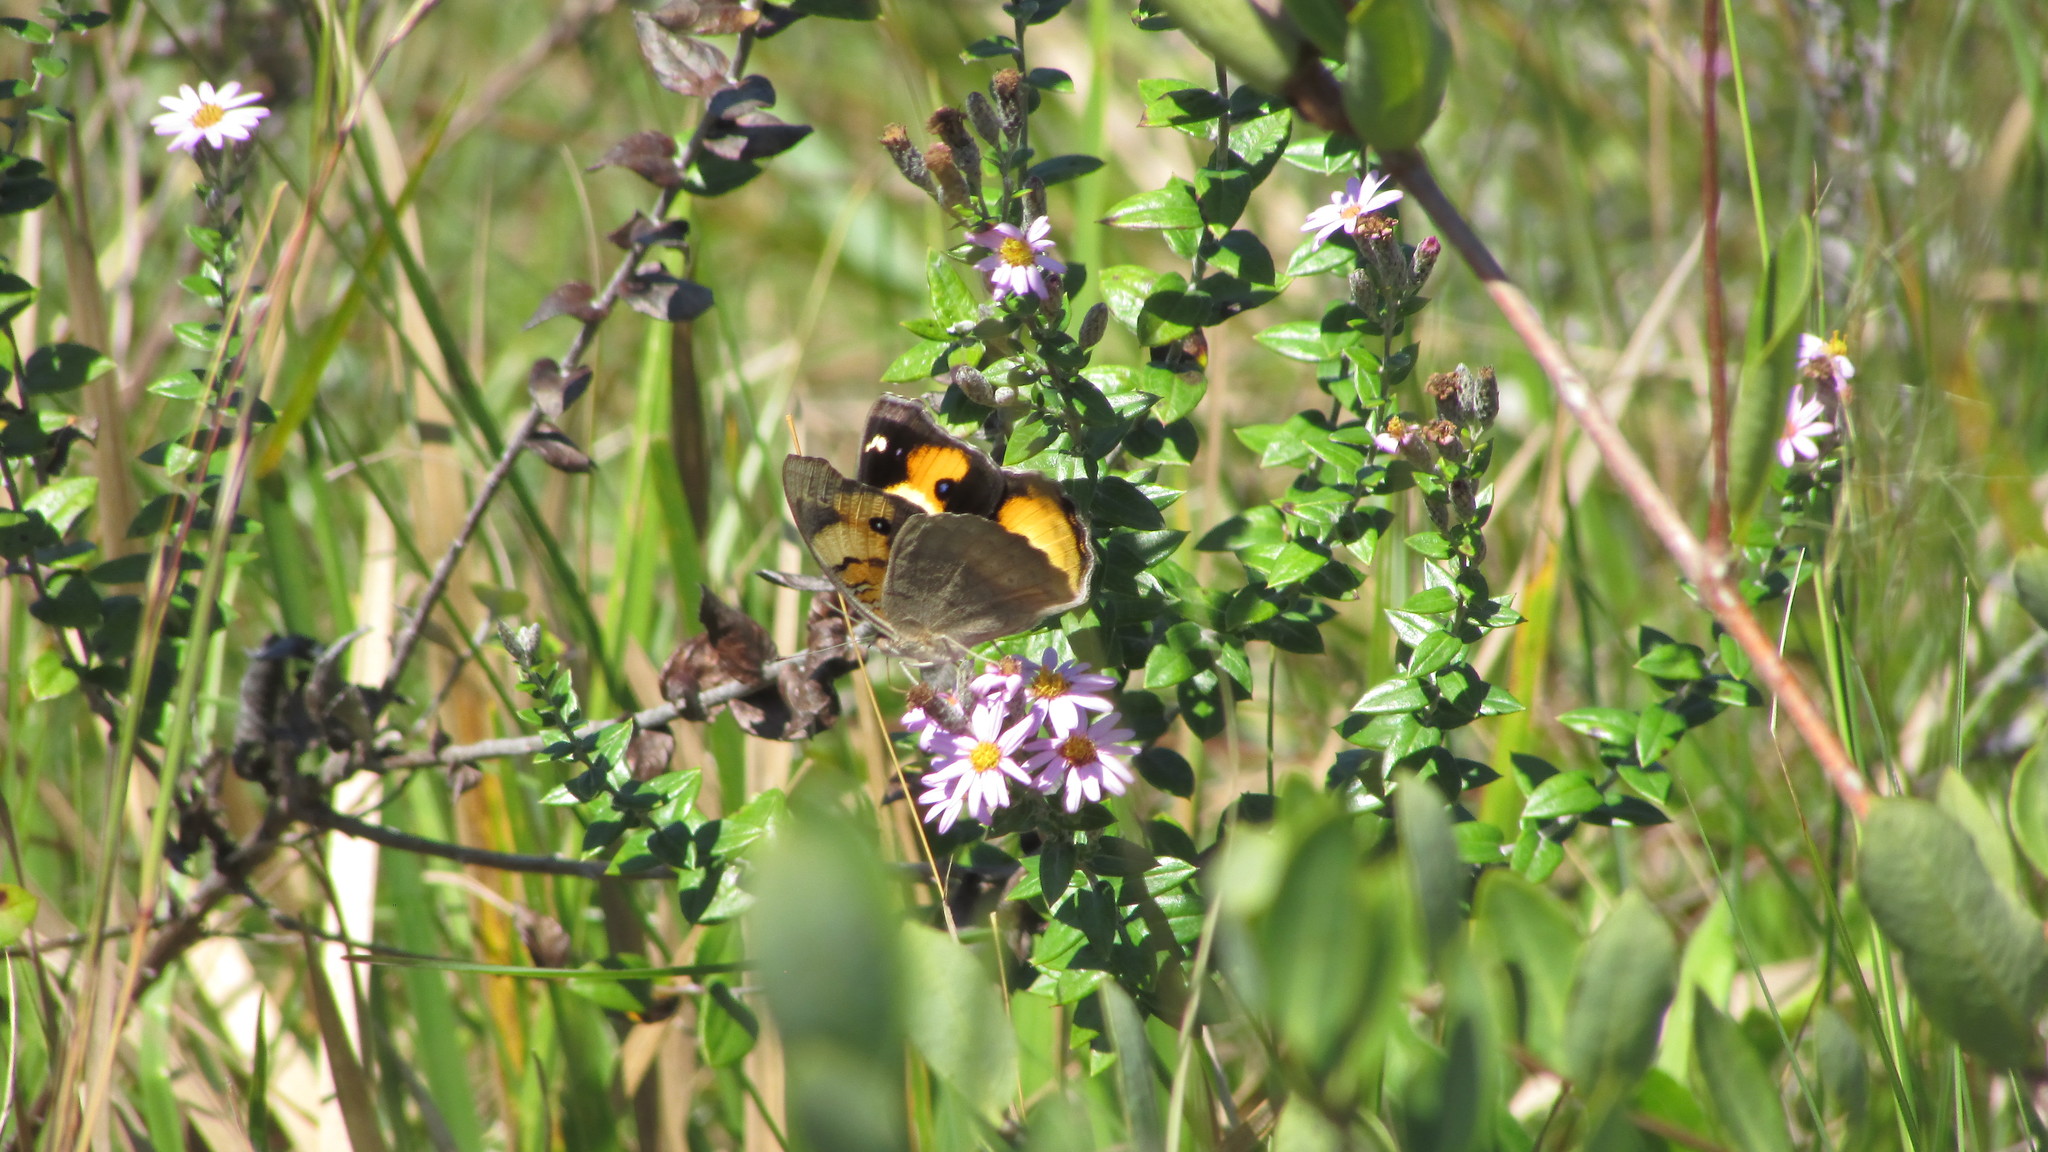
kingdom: Animalia
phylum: Arthropoda
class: Insecta
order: Lepidoptera
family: Nymphalidae
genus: Junonia
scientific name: Junonia hierta
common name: Yellow pansy
